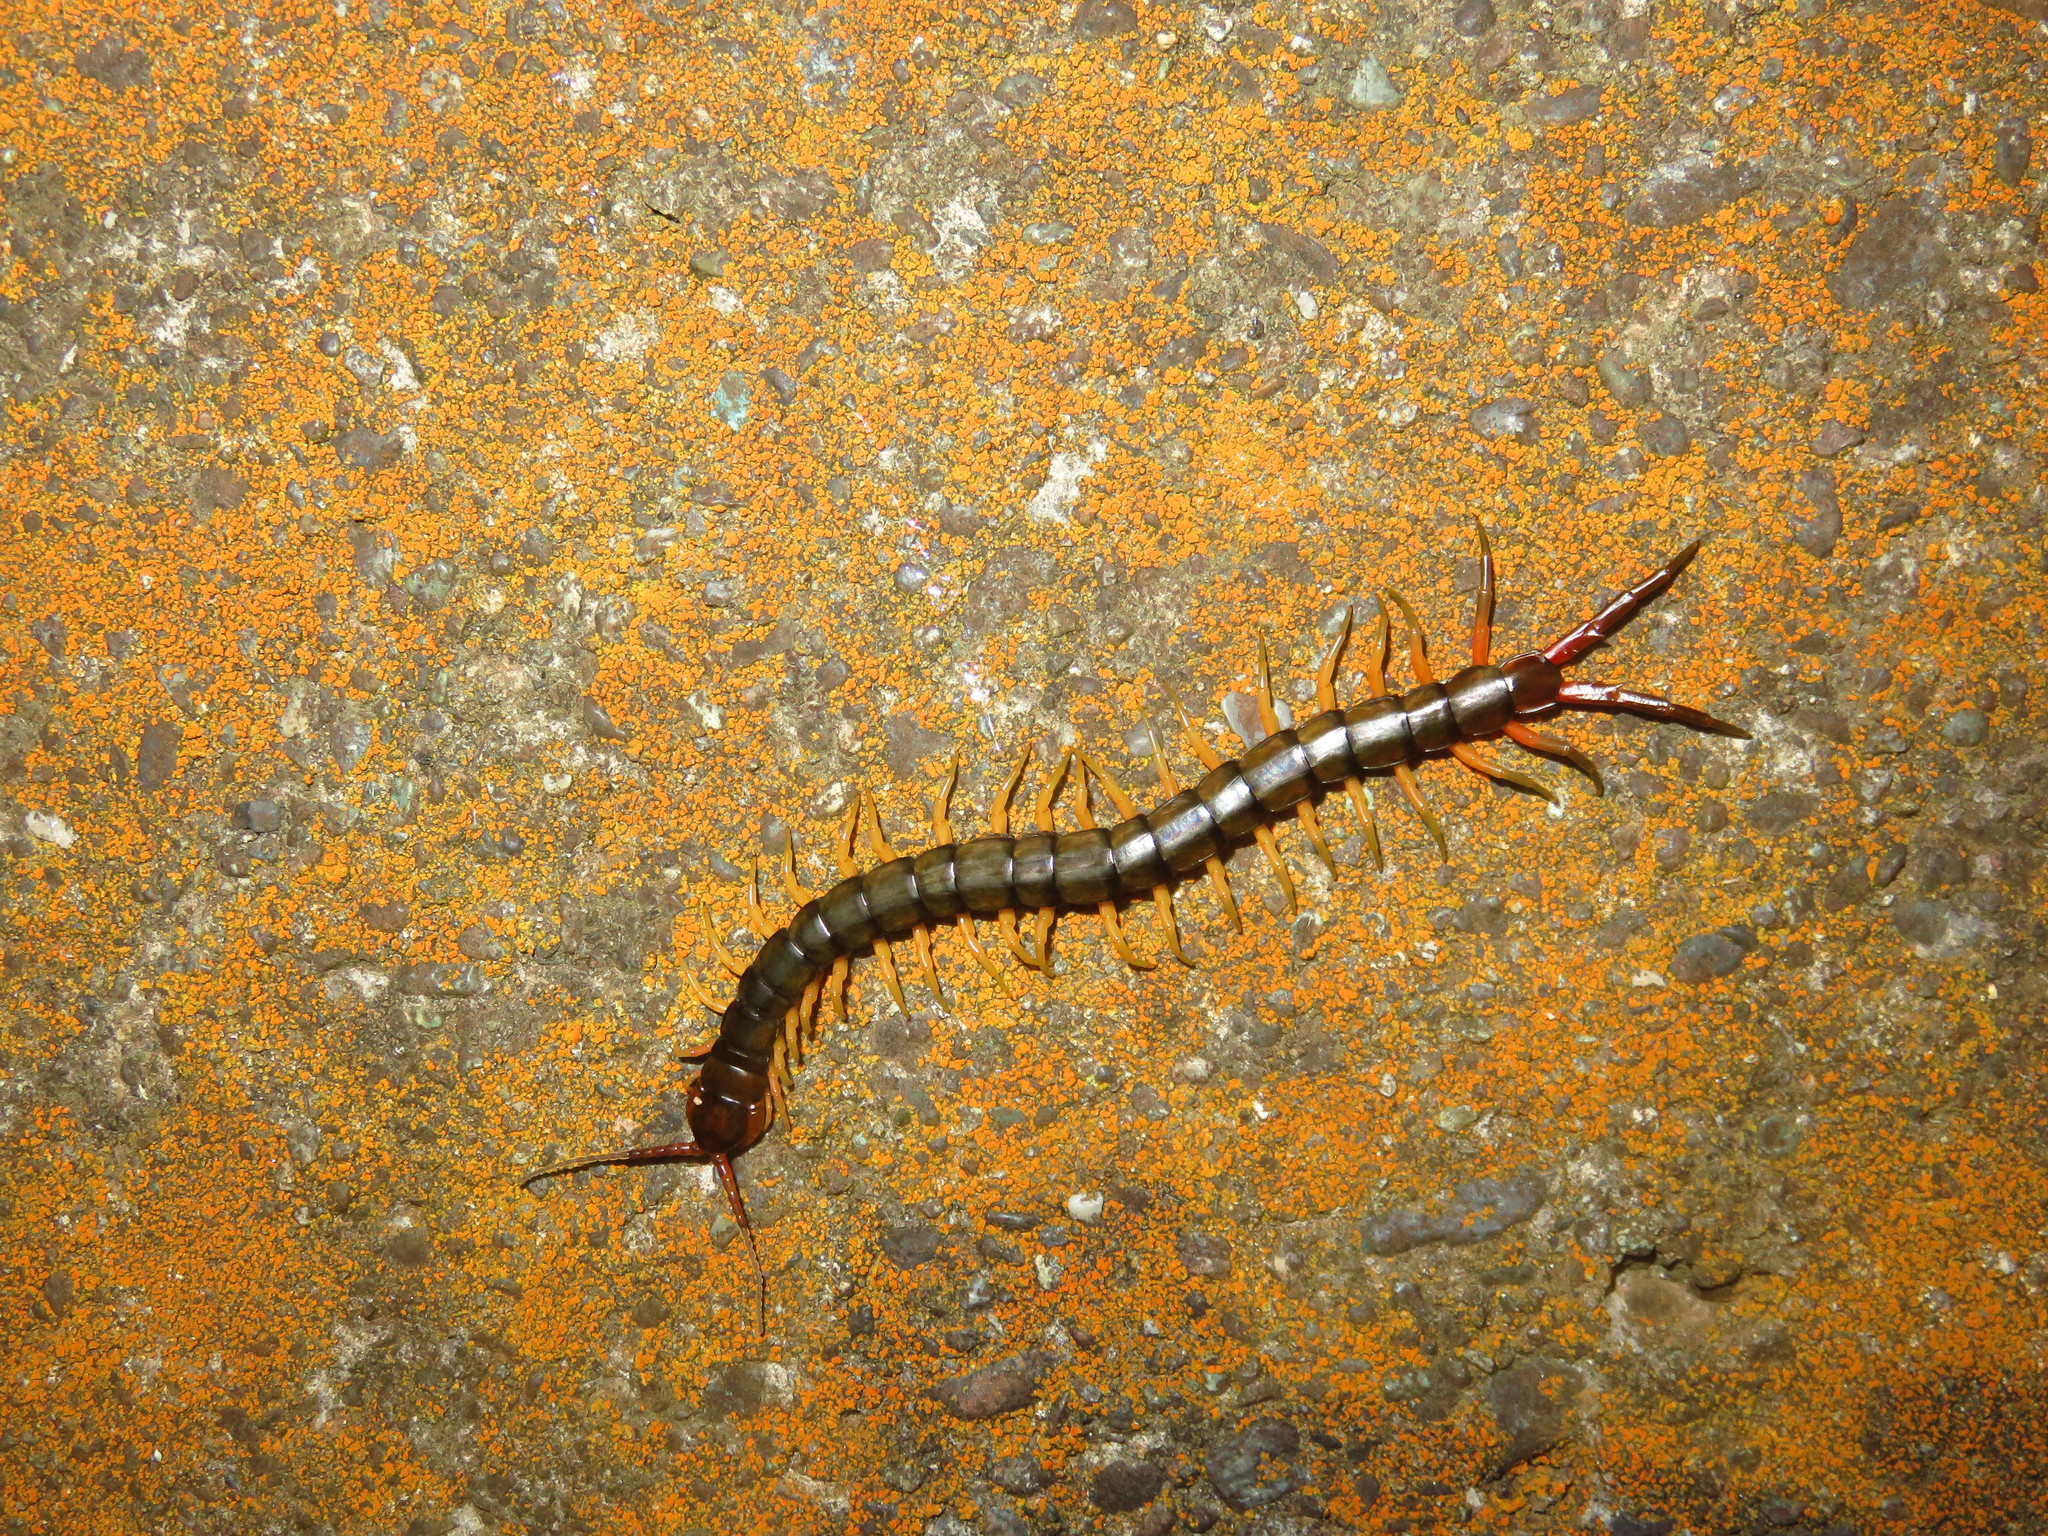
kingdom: Animalia
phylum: Arthropoda
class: Chilopoda
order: Scolopendromorpha
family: Scolopendridae
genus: Scolopendra
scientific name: Scolopendra japonica
